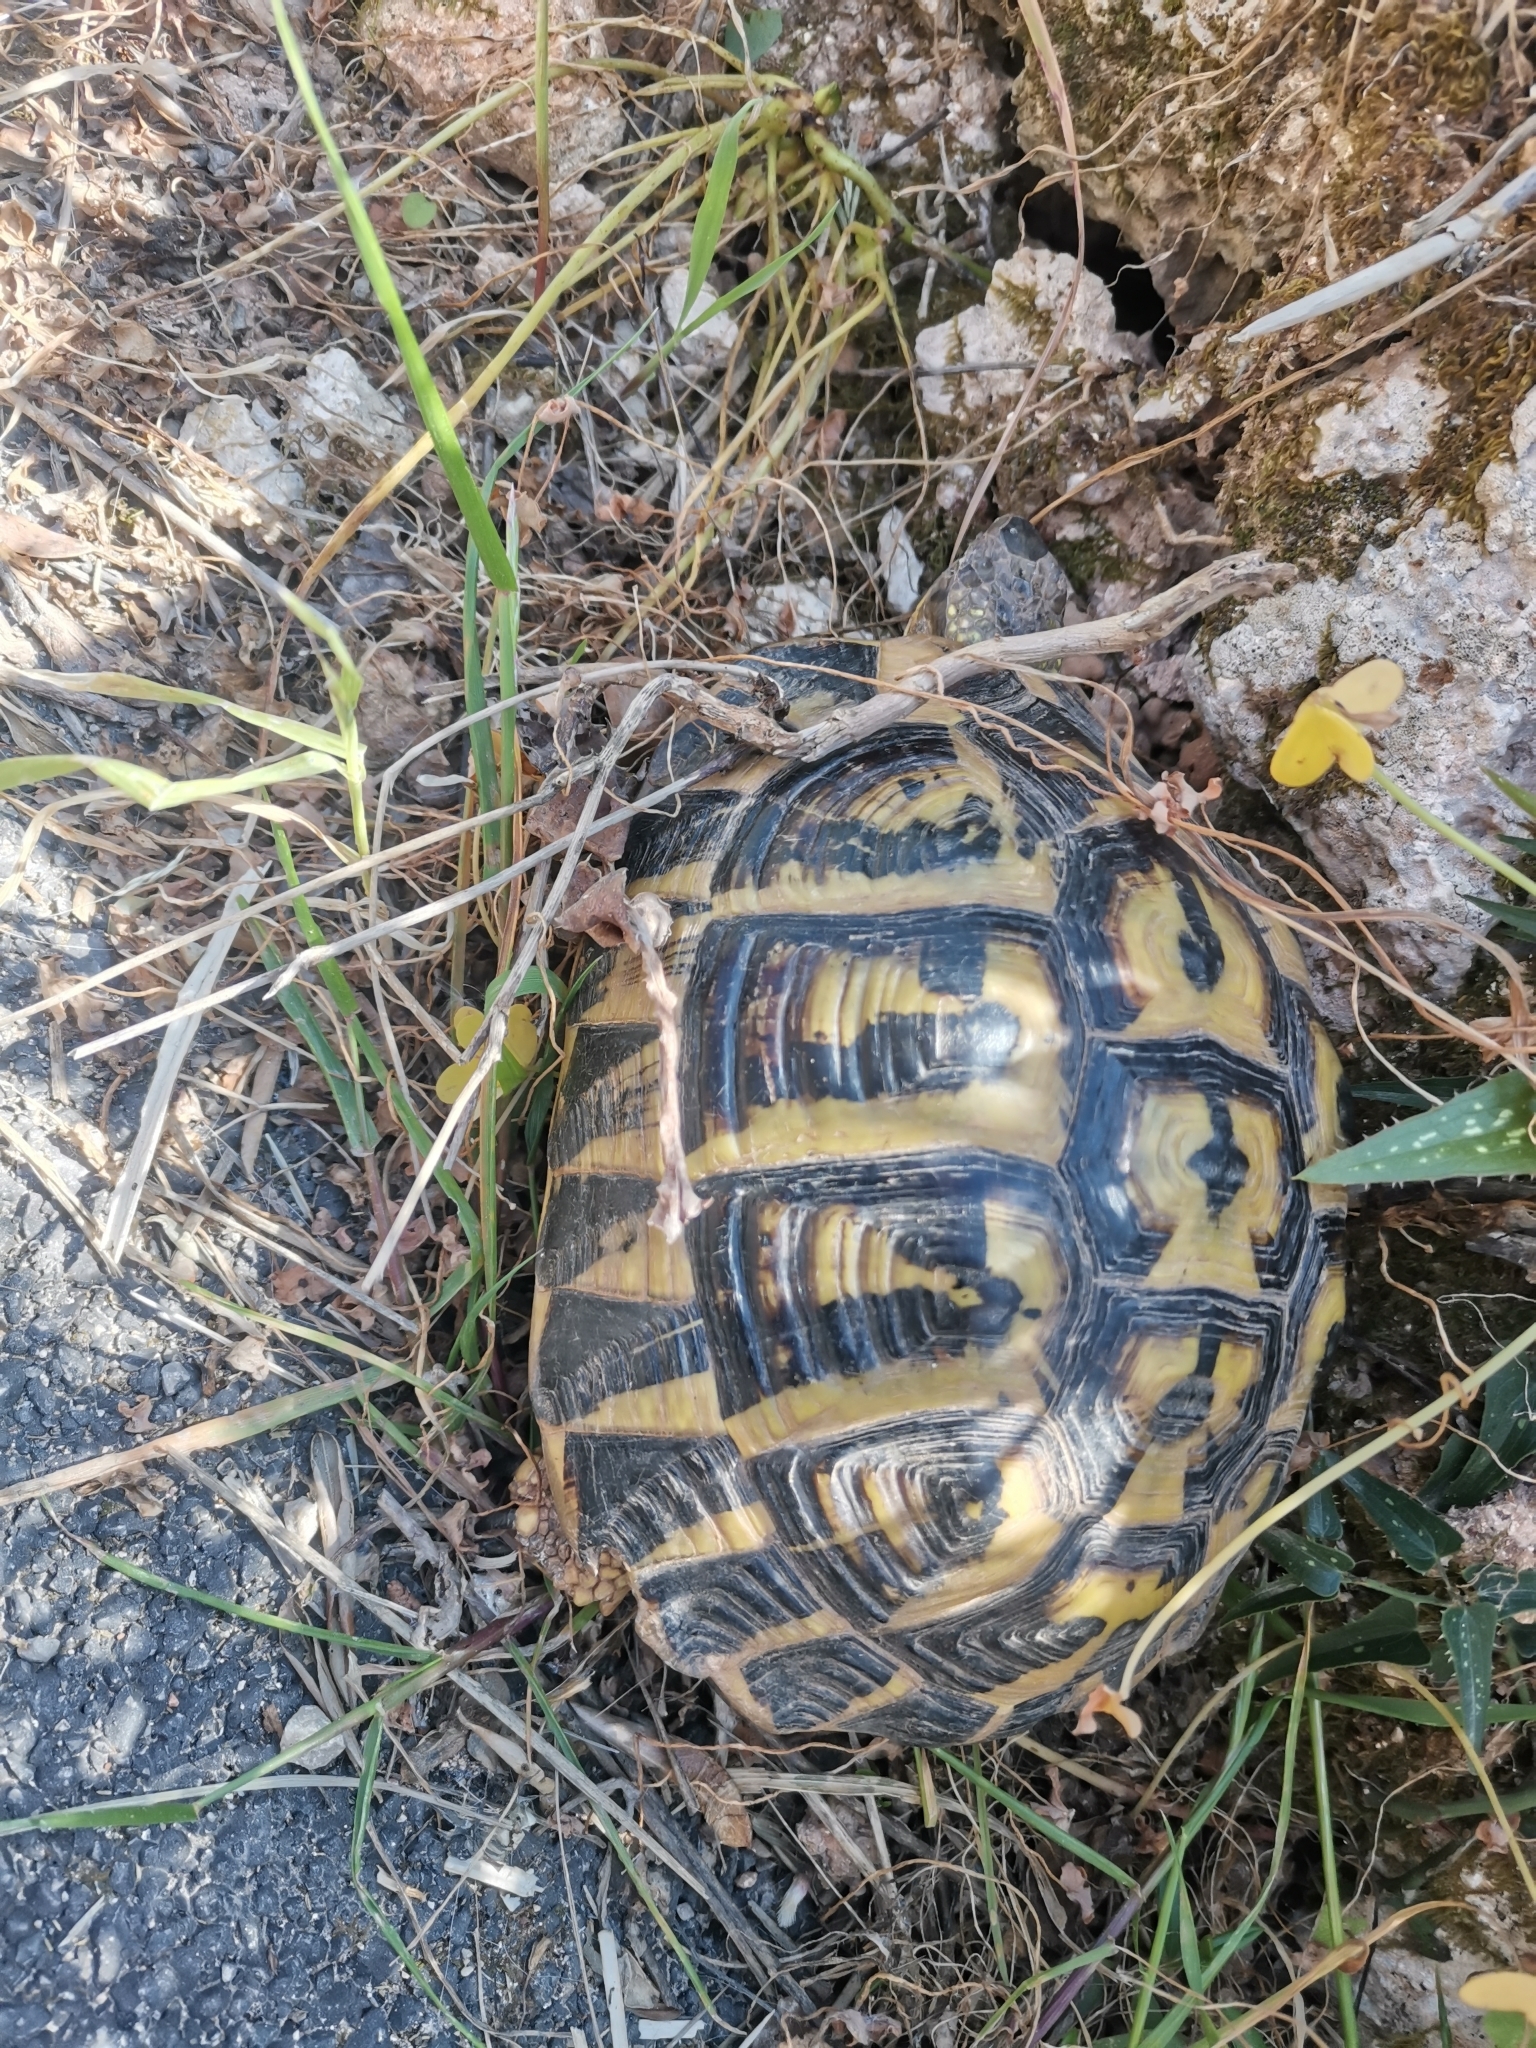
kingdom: Animalia
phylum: Chordata
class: Testudines
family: Testudinidae
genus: Testudo
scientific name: Testudo hermanni
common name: Hermann's tortoise
